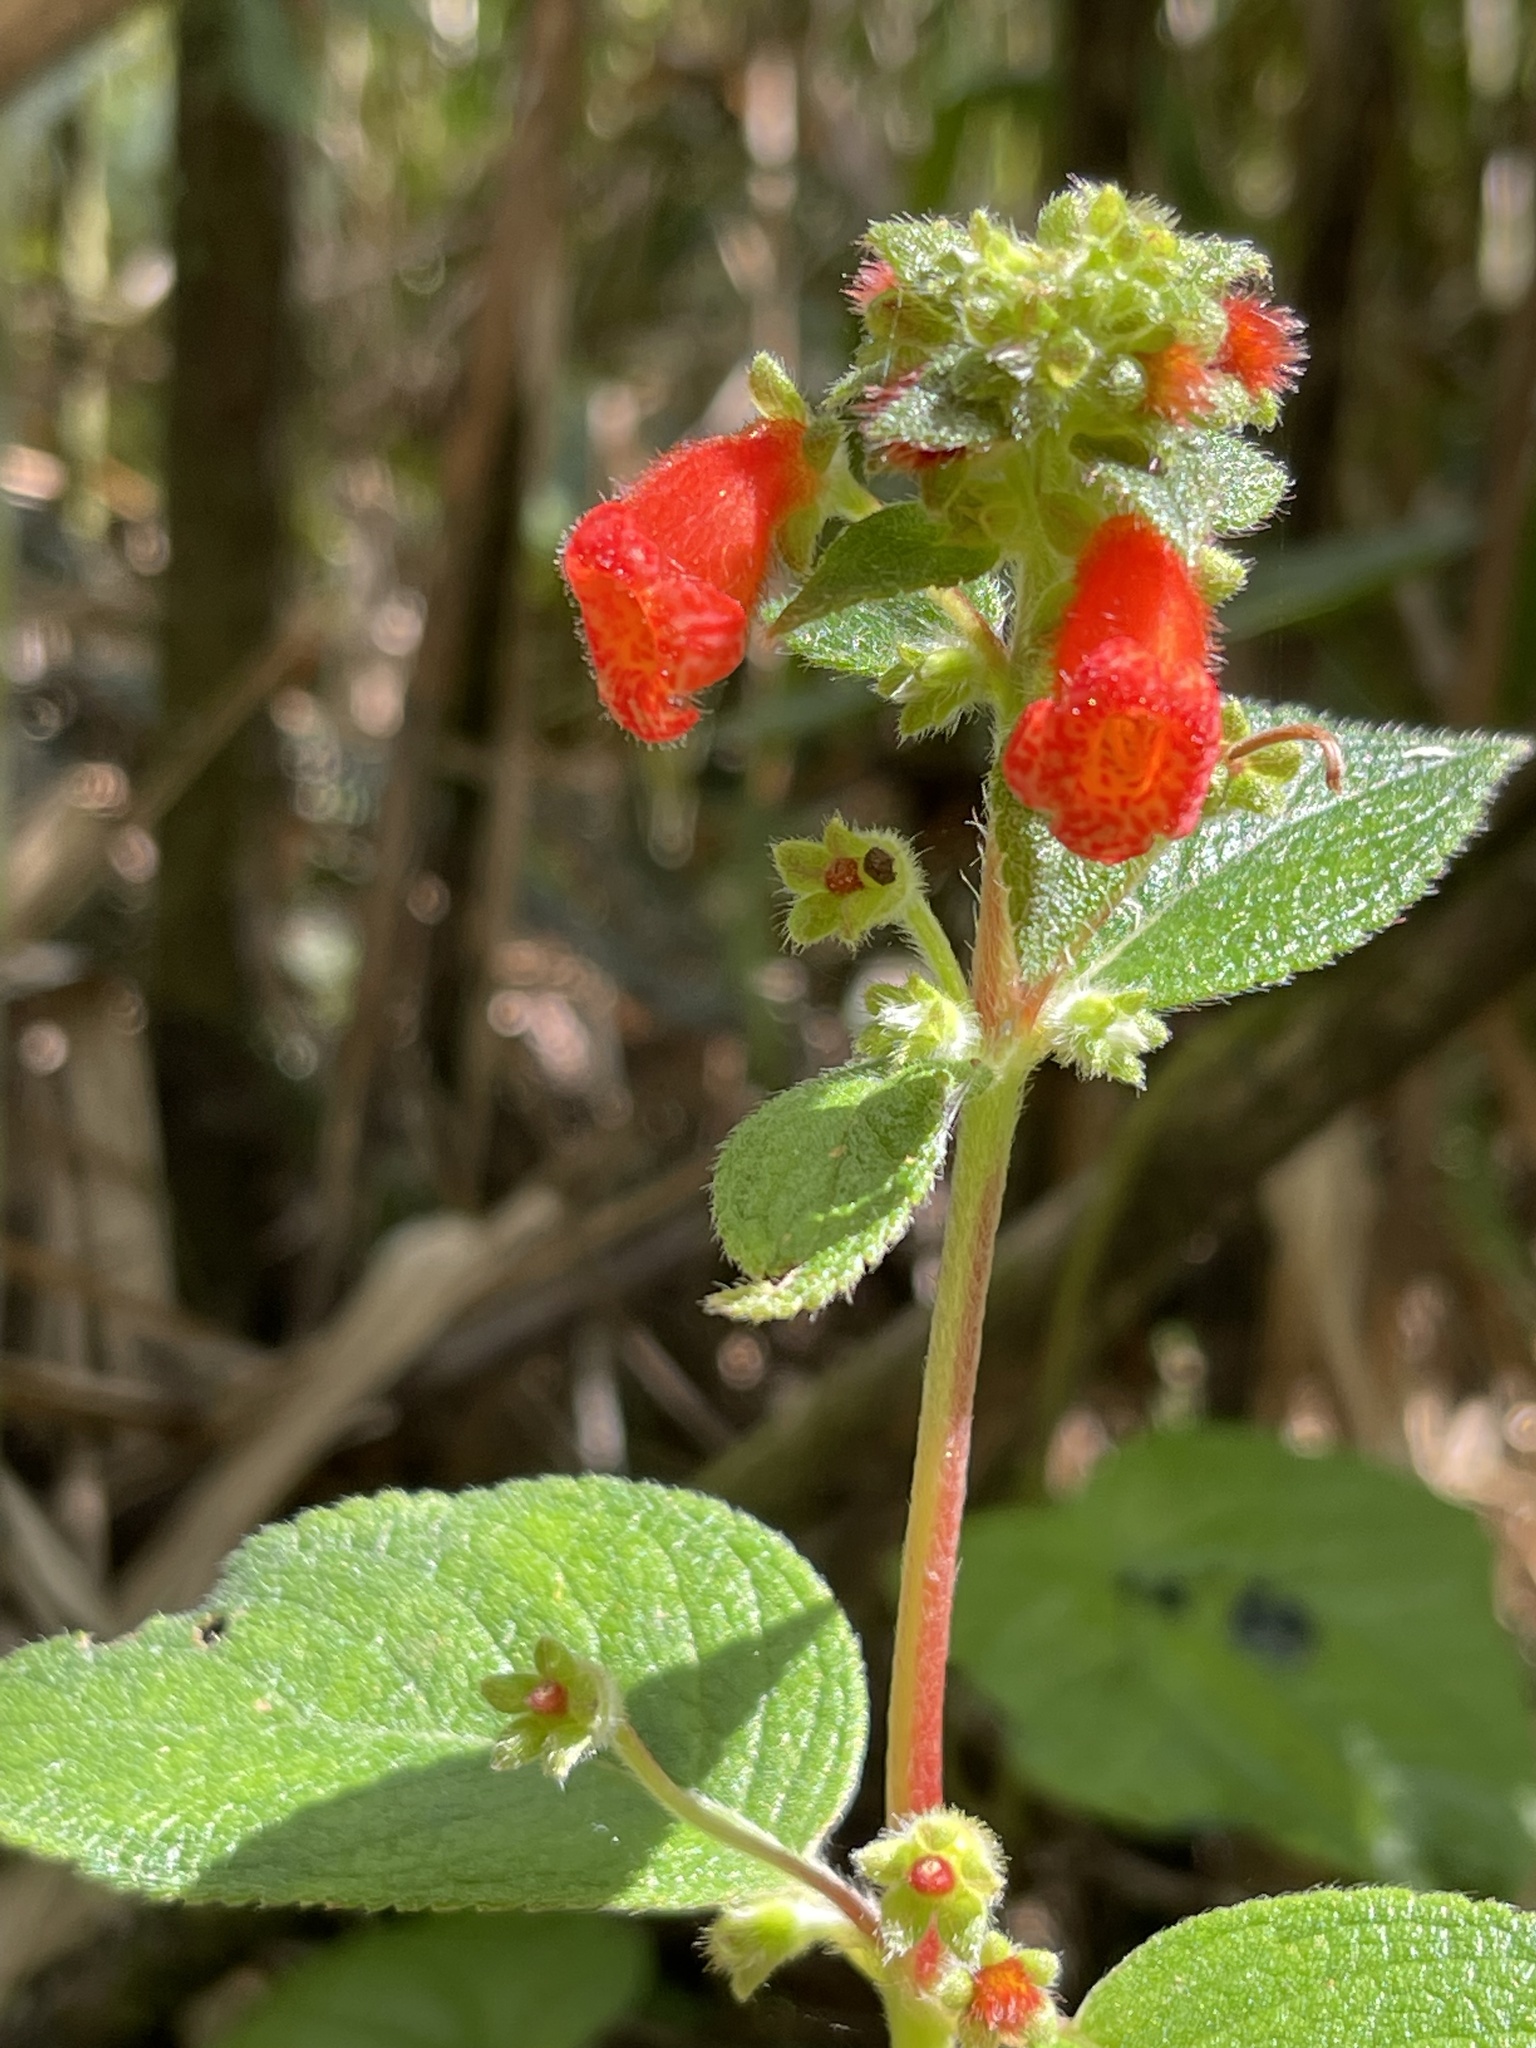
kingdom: Plantae
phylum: Tracheophyta
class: Magnoliopsida
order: Lamiales
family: Gesneriaceae
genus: Kohleria
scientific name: Kohleria spicata
